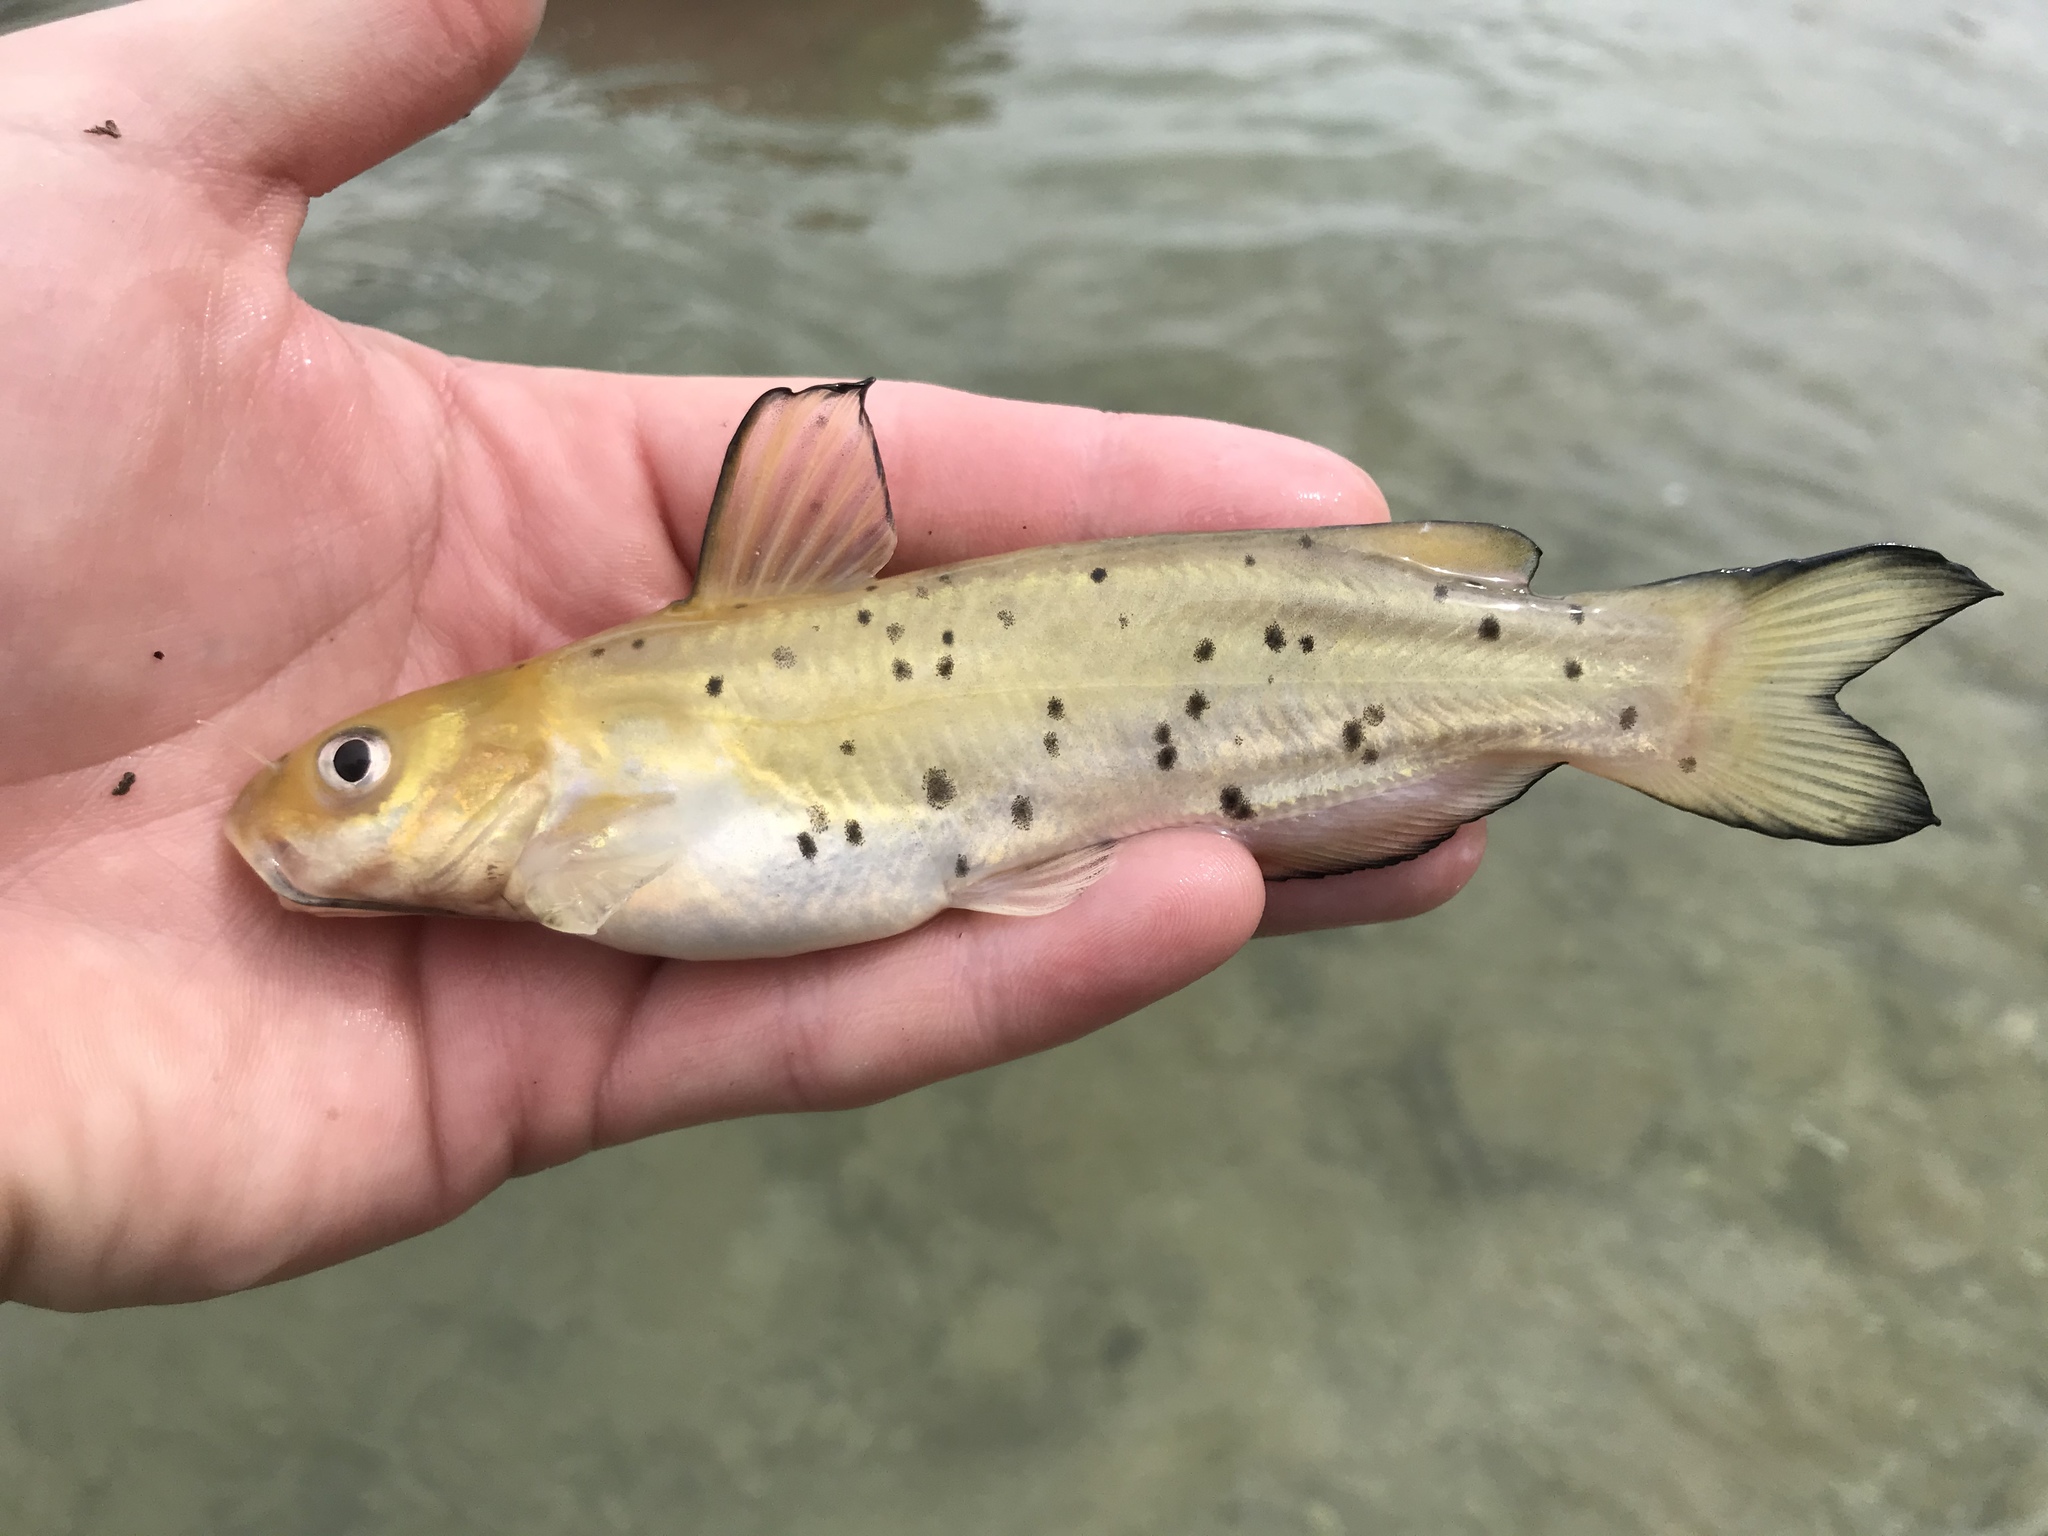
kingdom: Animalia
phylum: Chordata
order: Siluriformes
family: Ictaluridae
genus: Ictalurus
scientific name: Ictalurus punctatus
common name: Channel catfish
